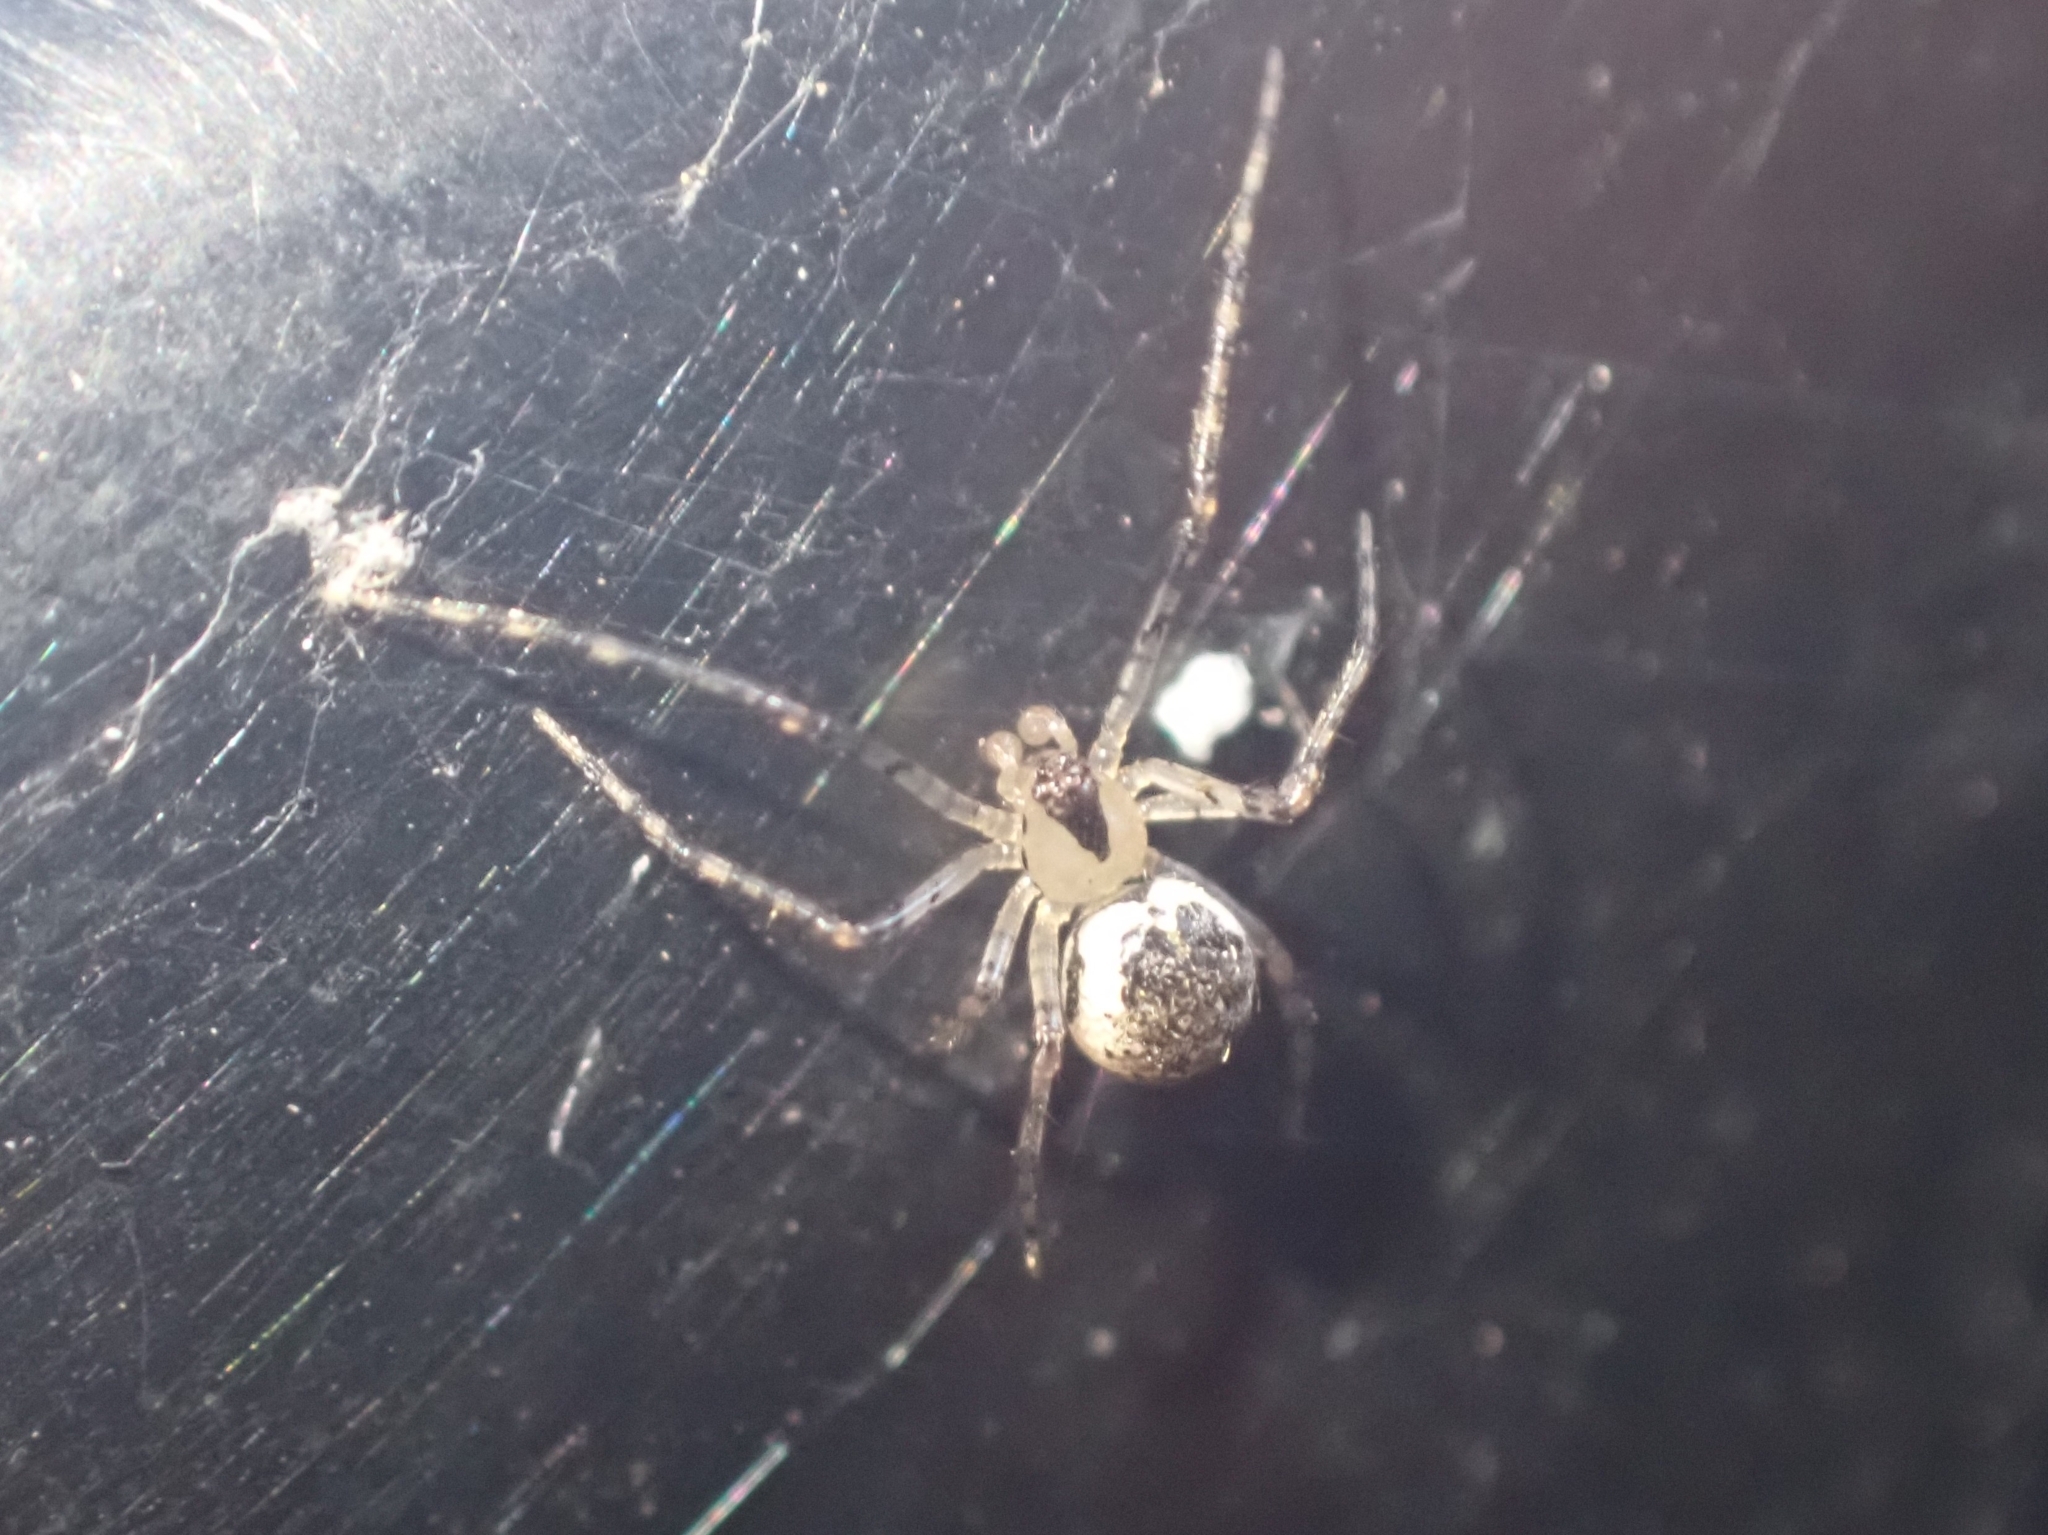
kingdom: Animalia
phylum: Arthropoda
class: Arachnida
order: Araneae
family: Theridiidae
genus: Platnickina
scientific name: Platnickina tincta
